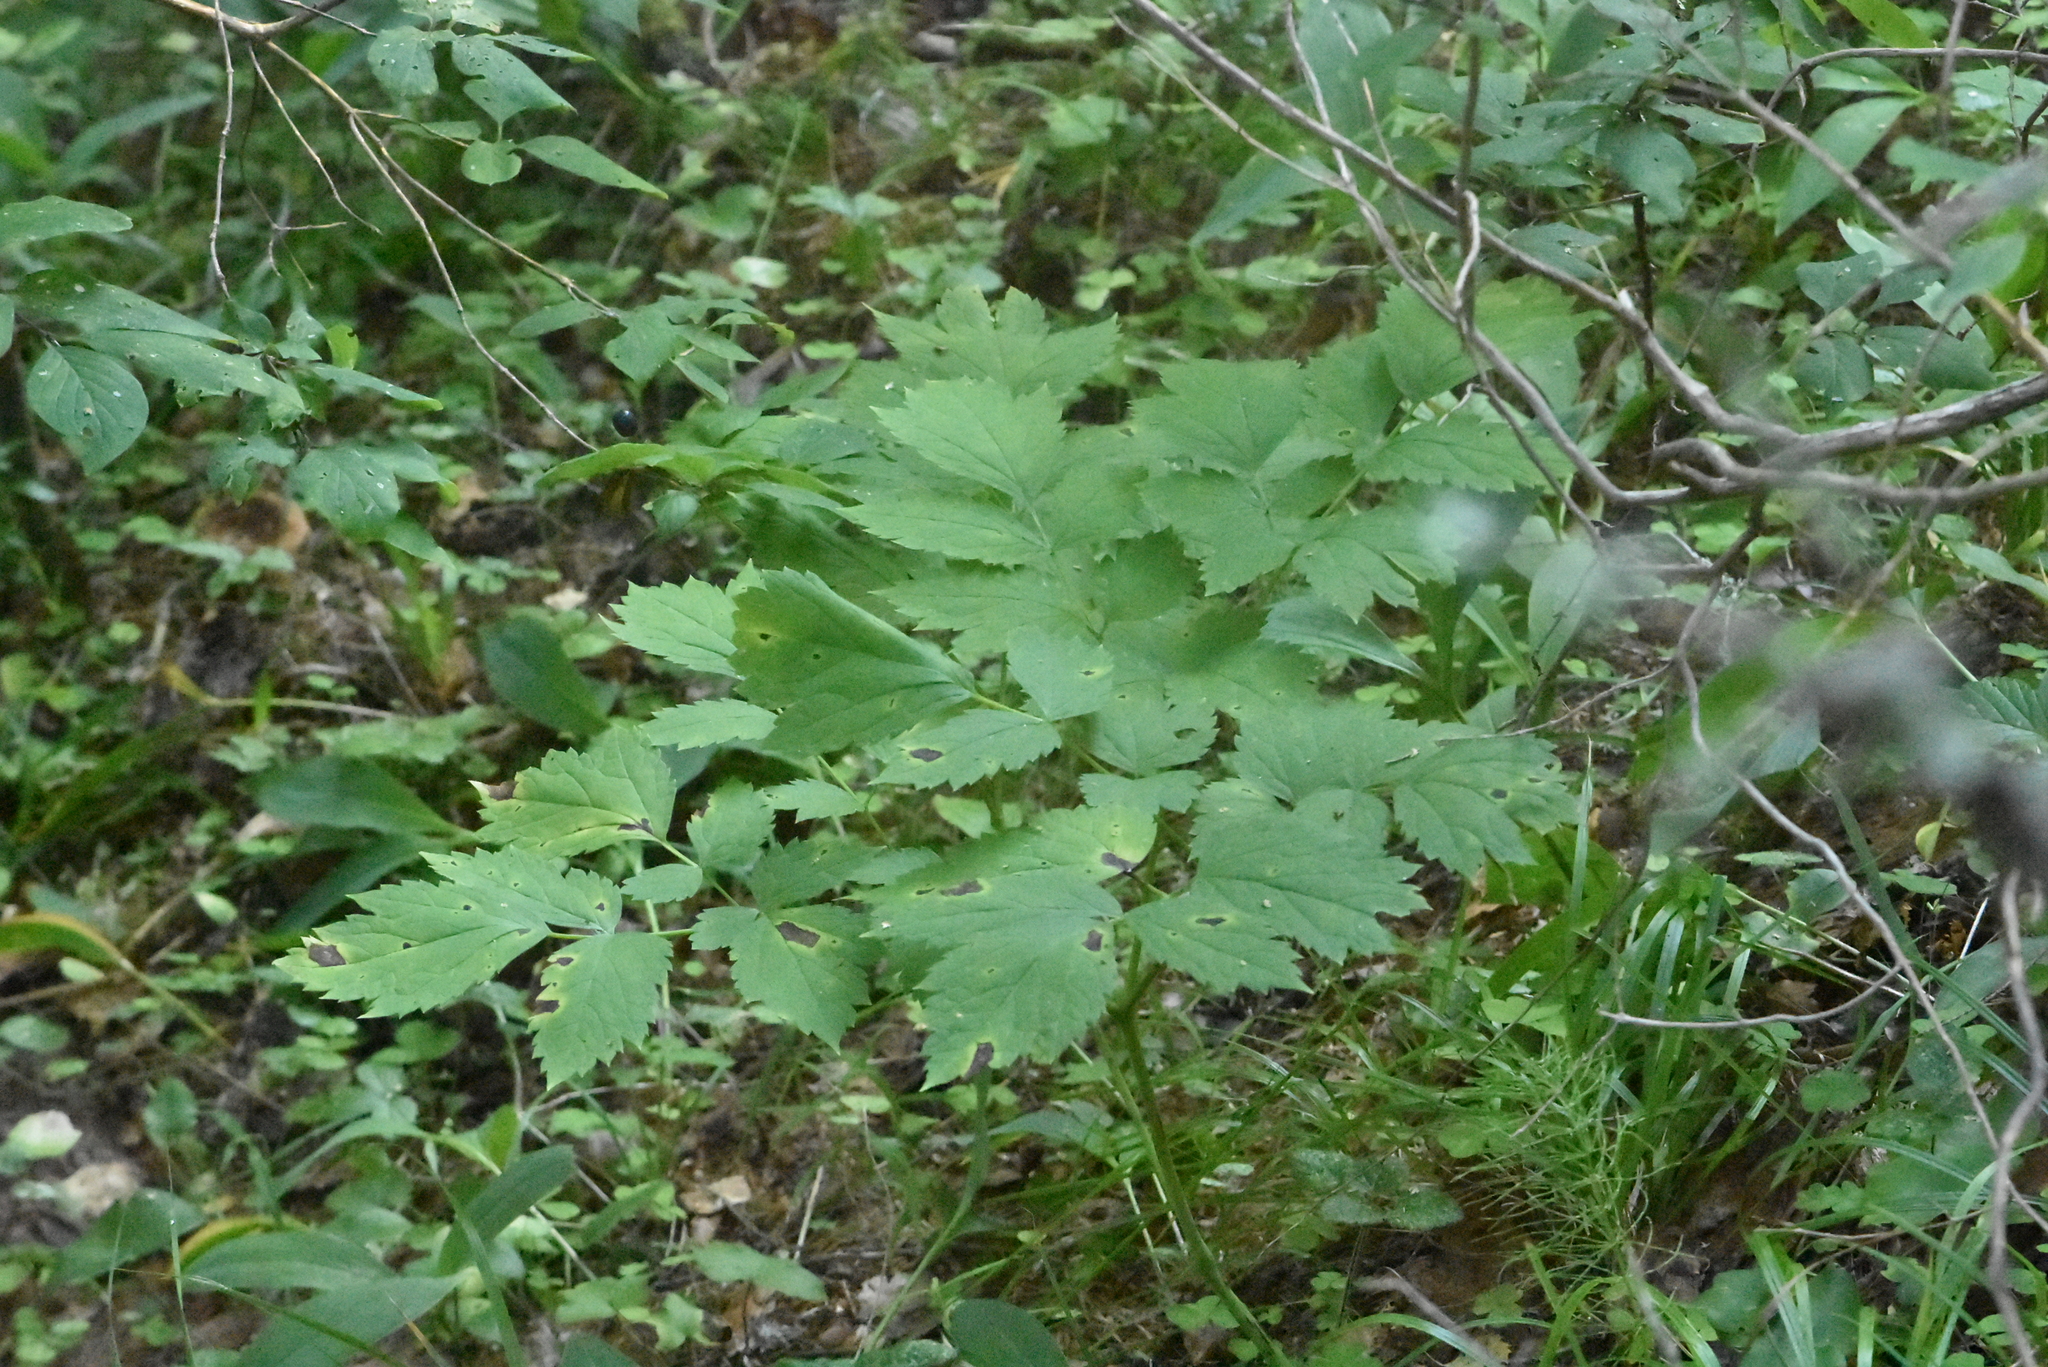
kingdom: Plantae
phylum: Tracheophyta
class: Magnoliopsida
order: Ranunculales
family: Ranunculaceae
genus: Actaea
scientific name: Actaea spicata
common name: Baneberry
